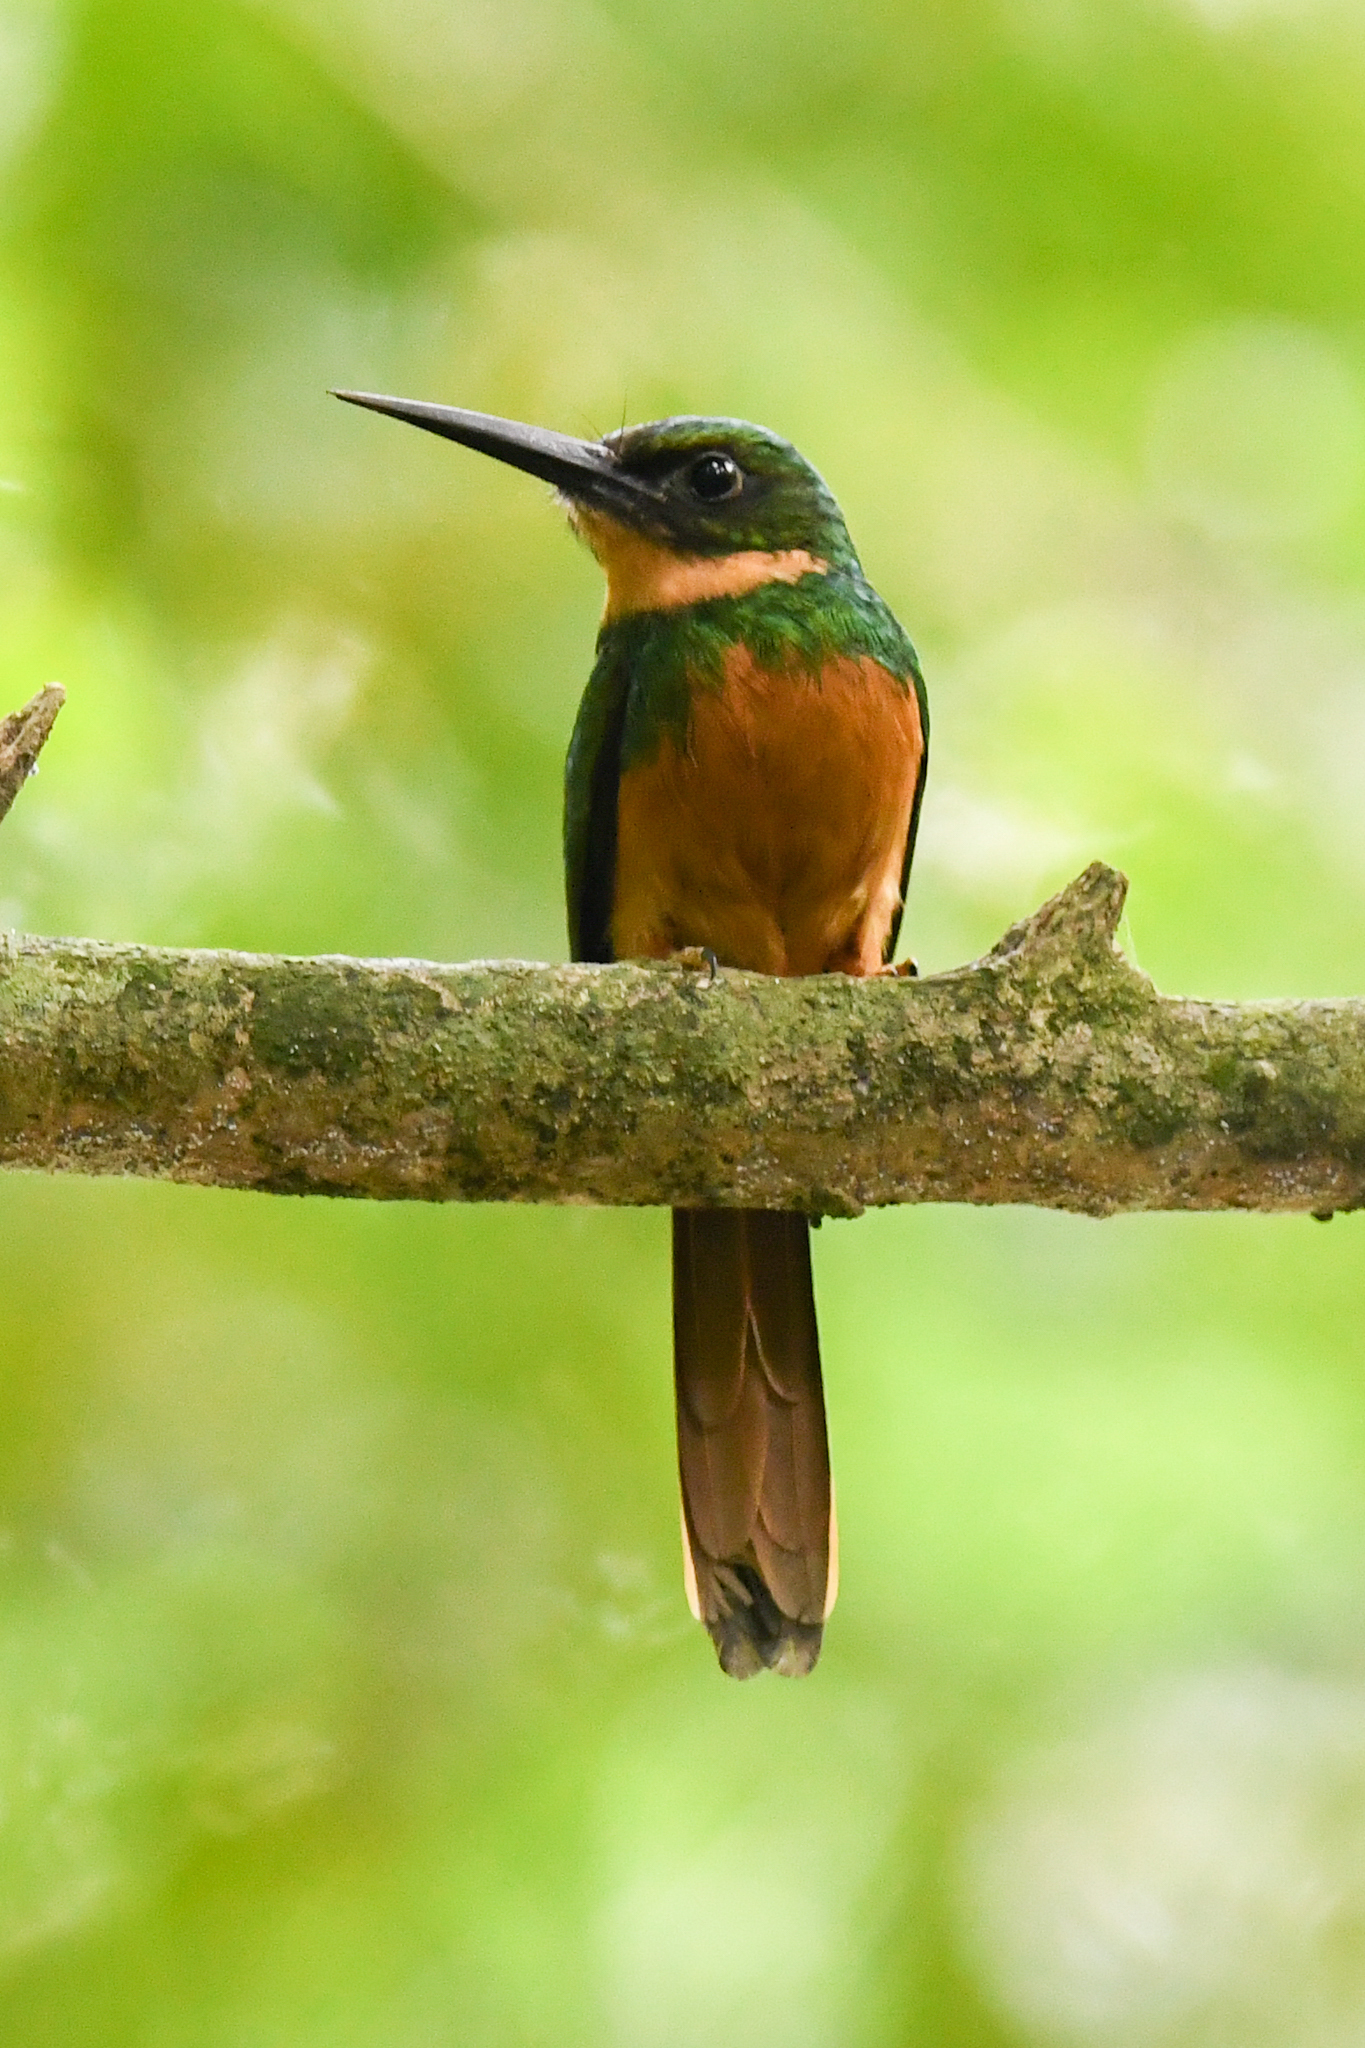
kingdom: Animalia
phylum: Chordata
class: Aves
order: Piciformes
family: Galbulidae
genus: Galbula
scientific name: Galbula ruficauda
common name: Rufous-tailed jacamar
